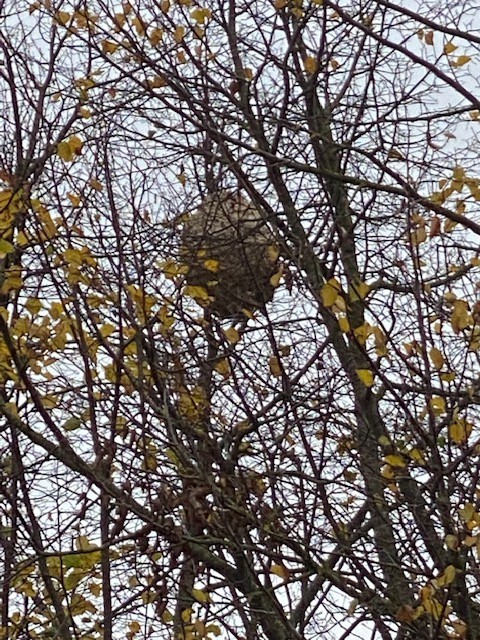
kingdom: Animalia
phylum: Arthropoda
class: Insecta
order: Hymenoptera
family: Vespidae
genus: Vespa
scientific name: Vespa velutina
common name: Asian hornet
